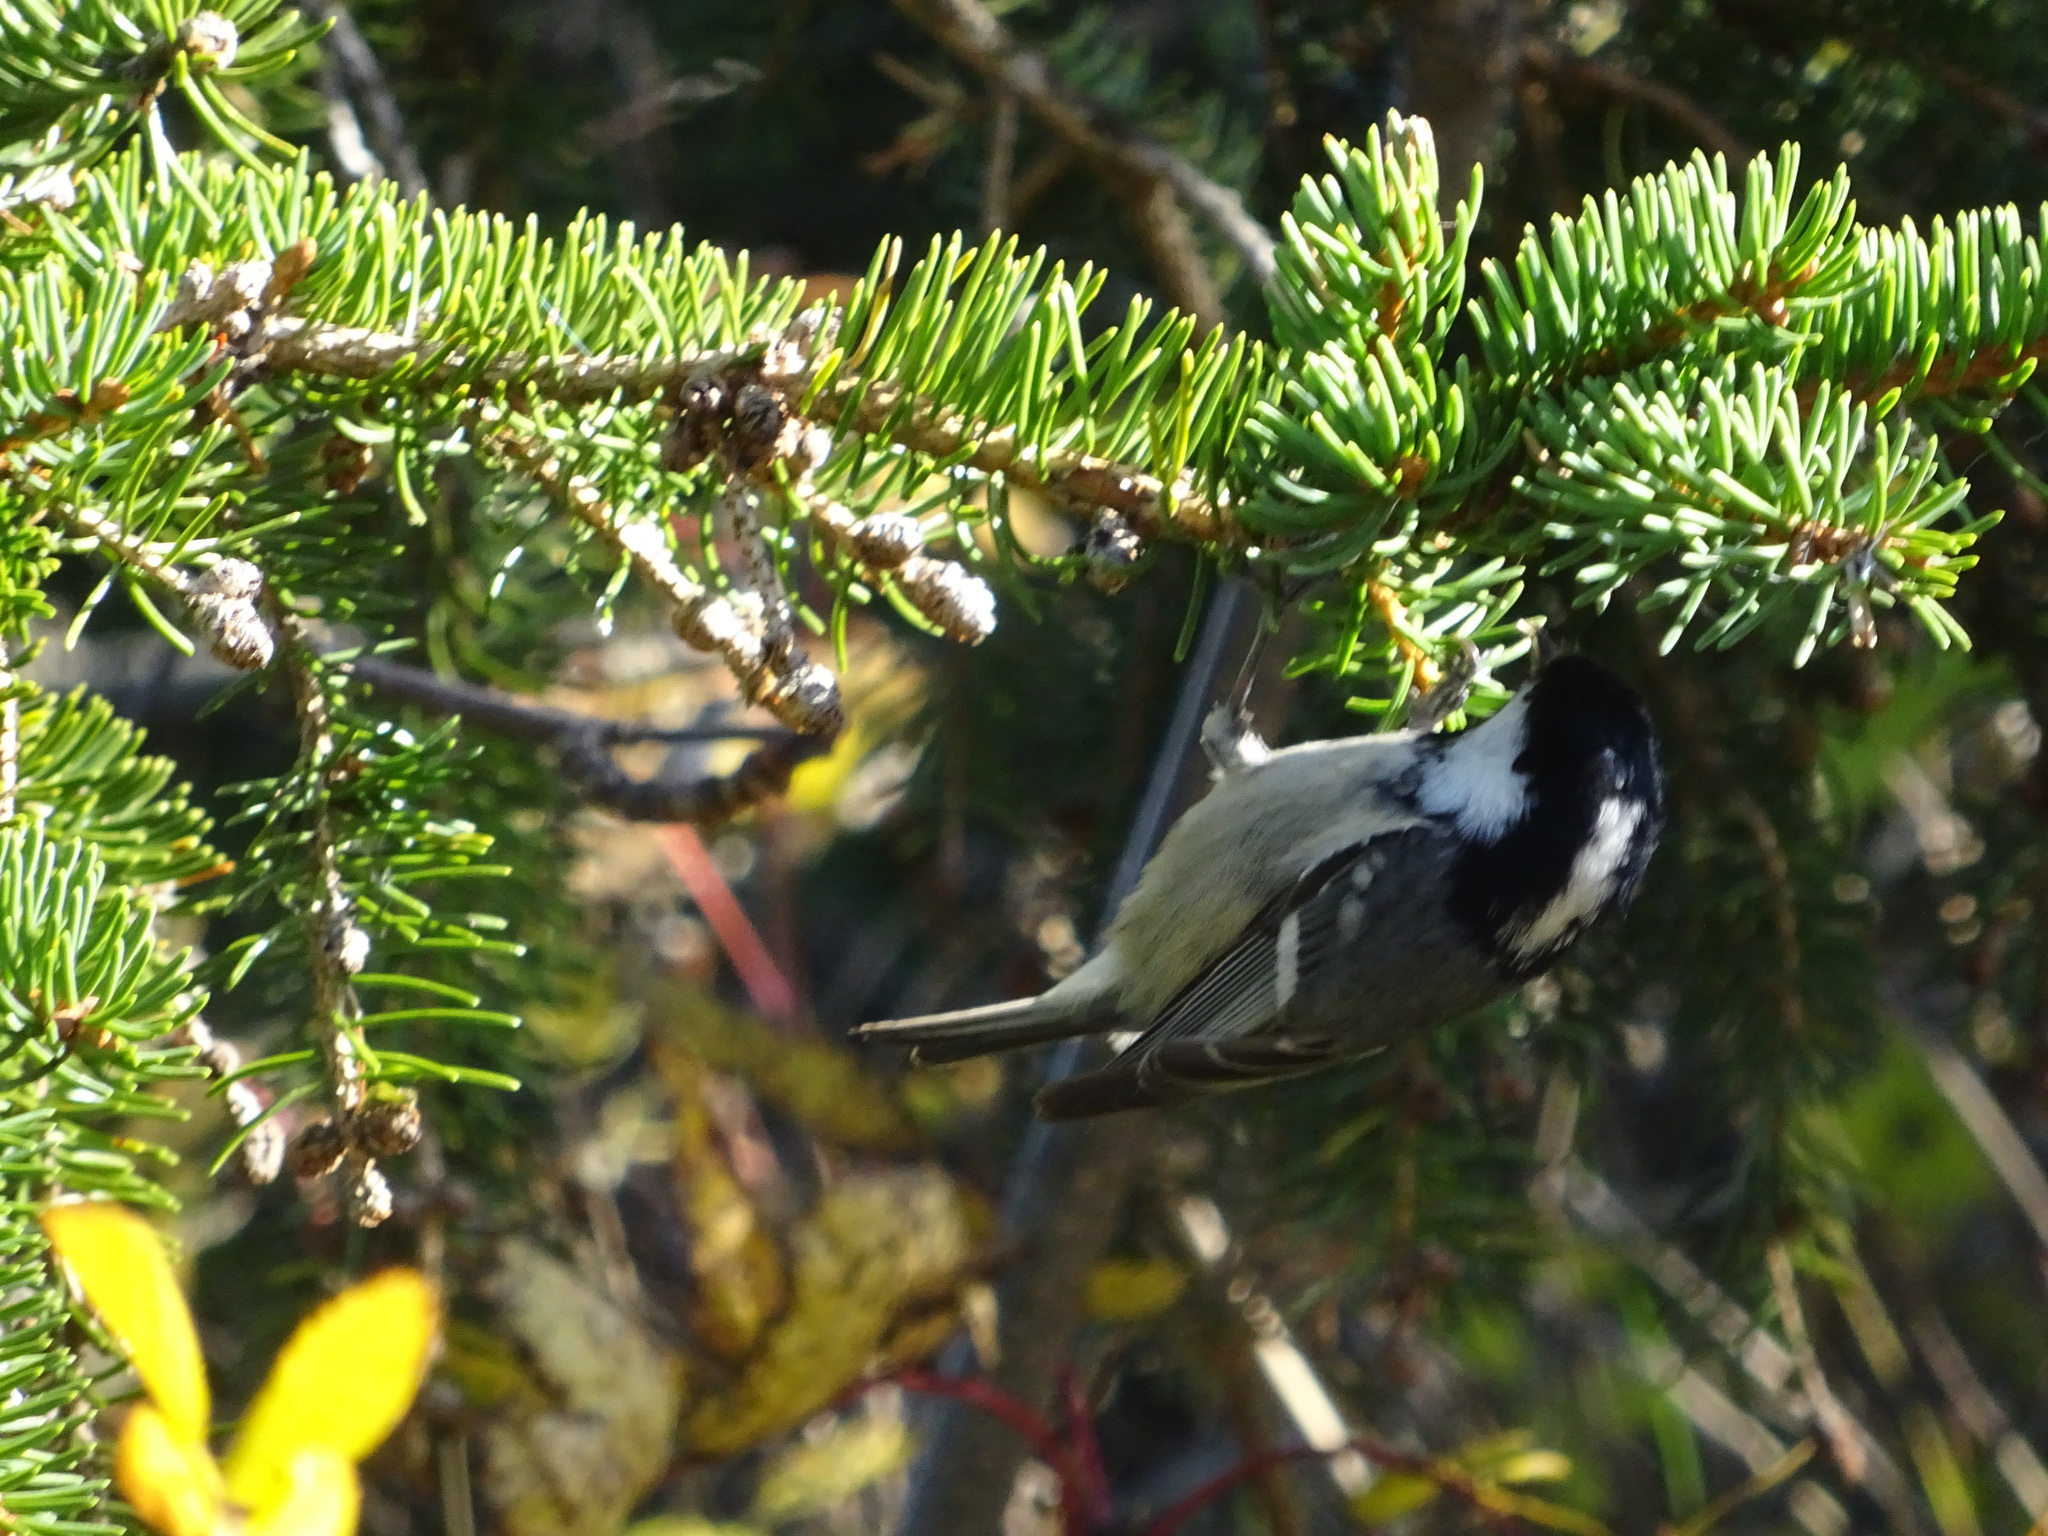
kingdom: Animalia
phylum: Chordata
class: Aves
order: Passeriformes
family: Paridae
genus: Periparus
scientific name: Periparus ater
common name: Coal tit
